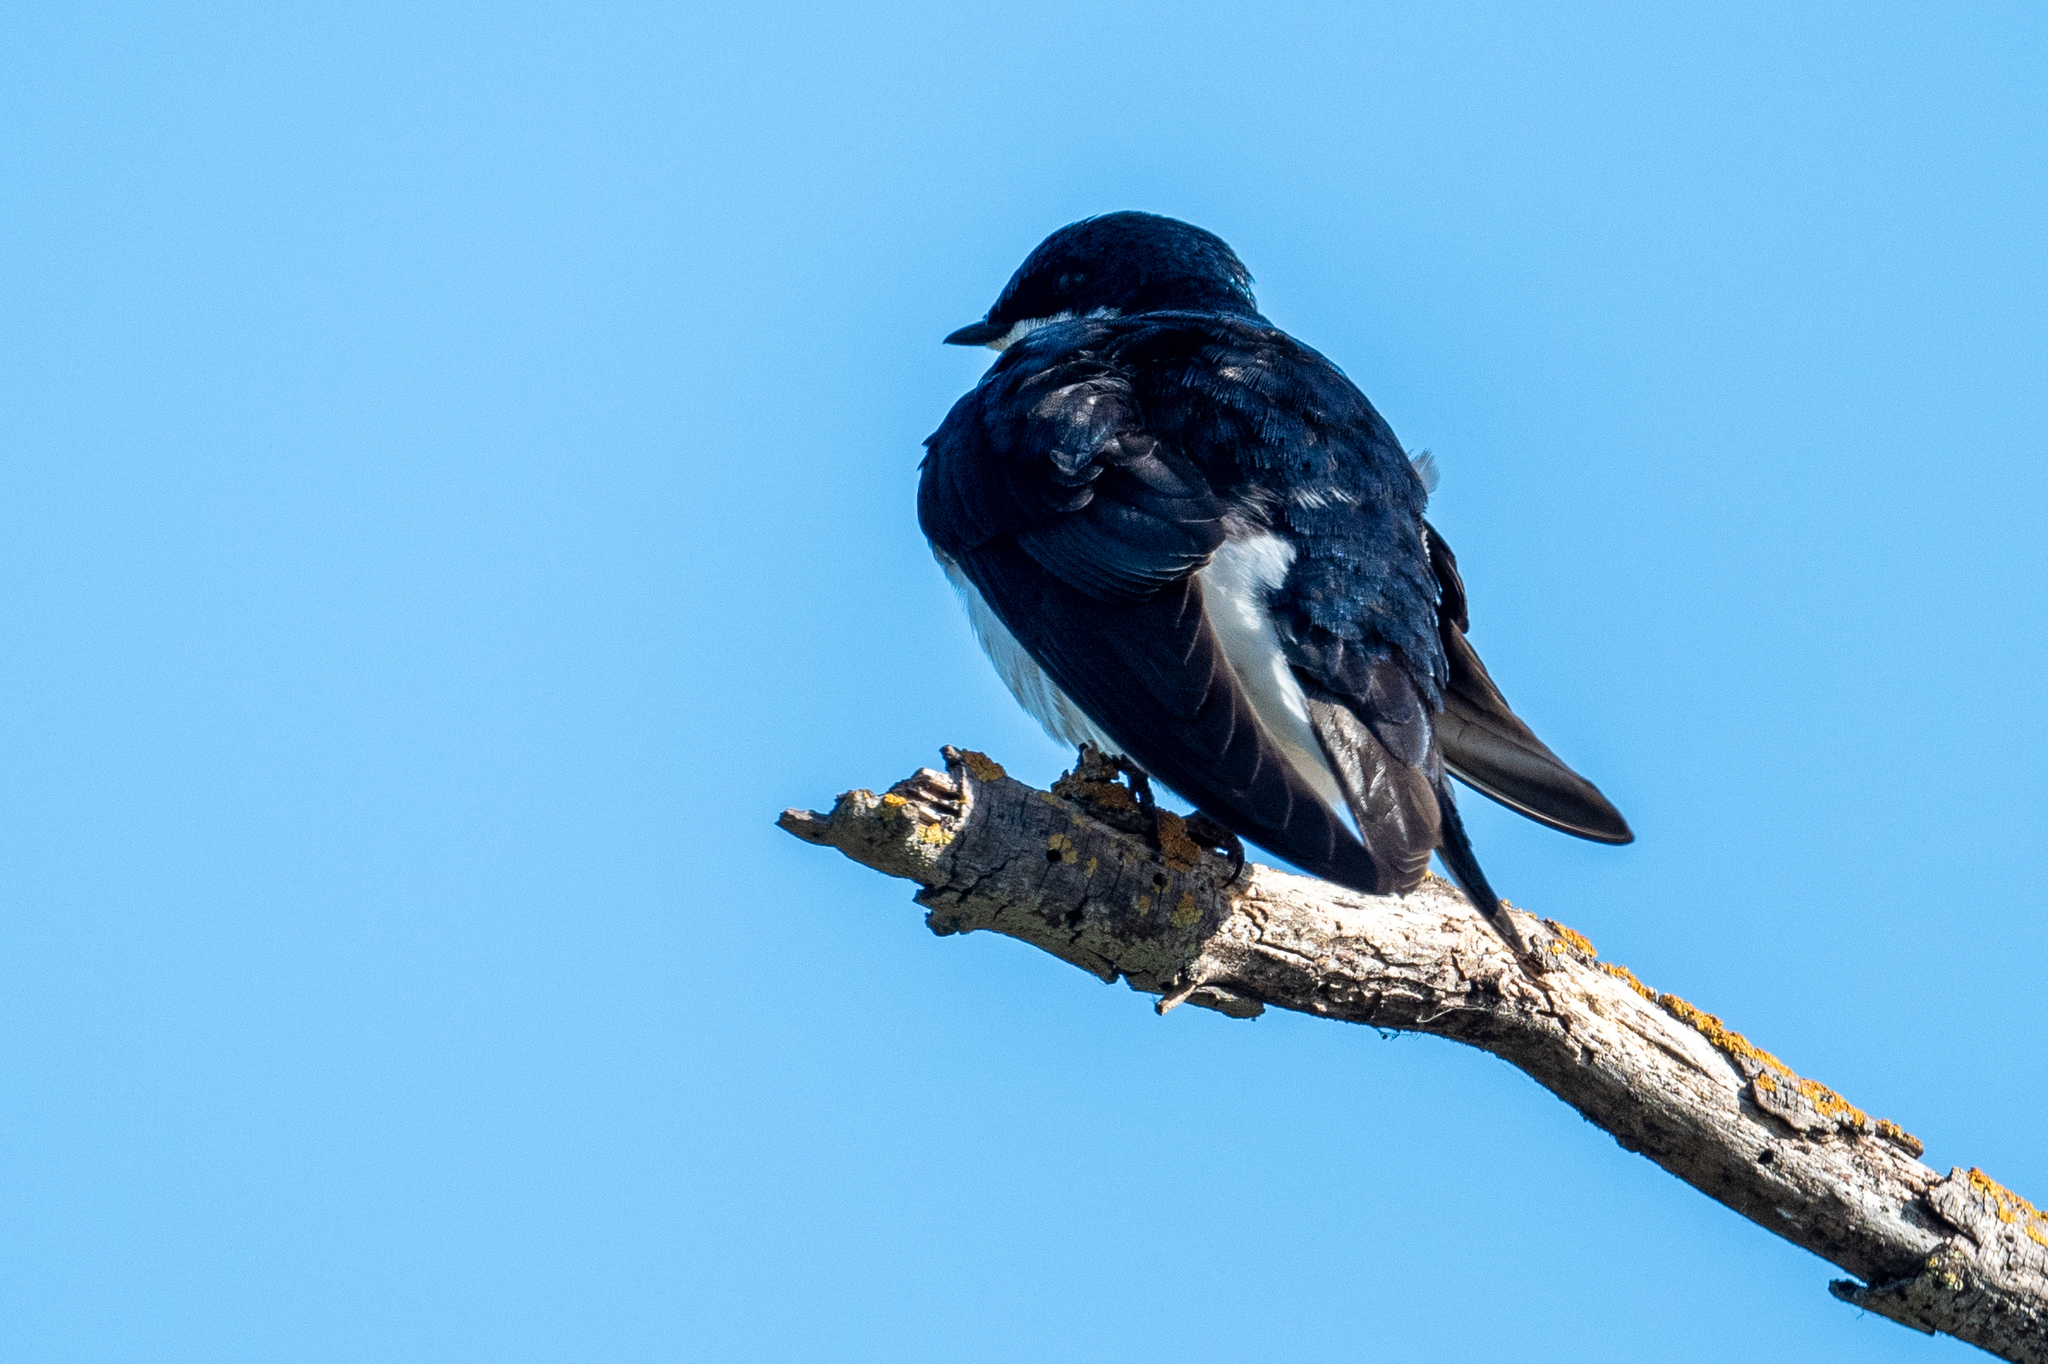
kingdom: Animalia
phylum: Chordata
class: Aves
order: Passeriformes
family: Hirundinidae
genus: Tachycineta
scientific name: Tachycineta bicolor
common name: Tree swallow
